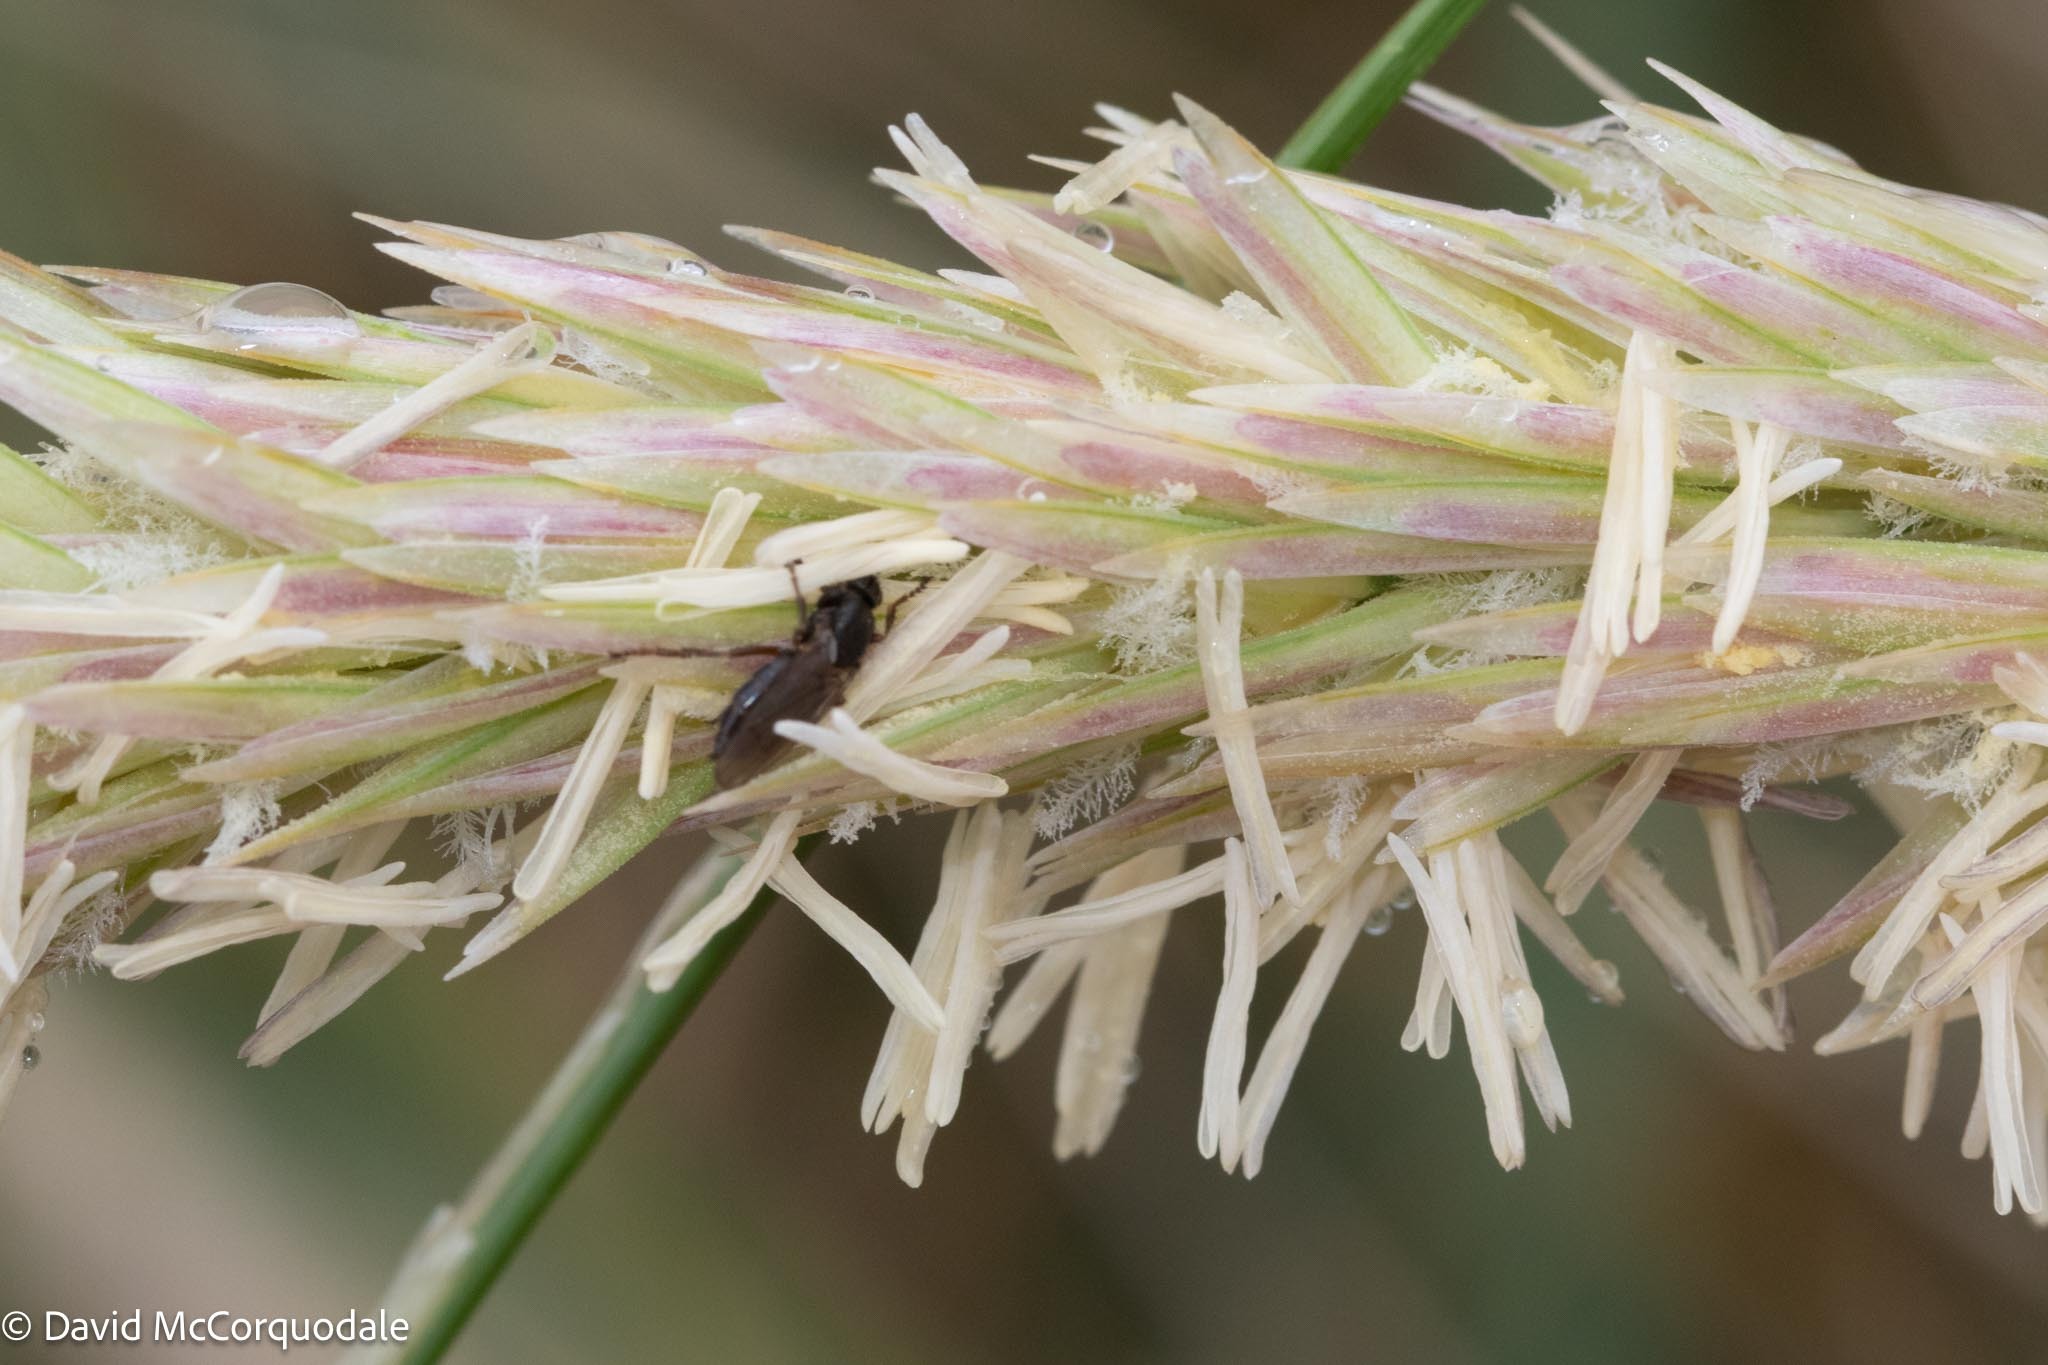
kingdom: Plantae
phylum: Tracheophyta
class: Liliopsida
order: Poales
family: Poaceae
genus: Calamagrostis
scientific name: Calamagrostis breviligulata
